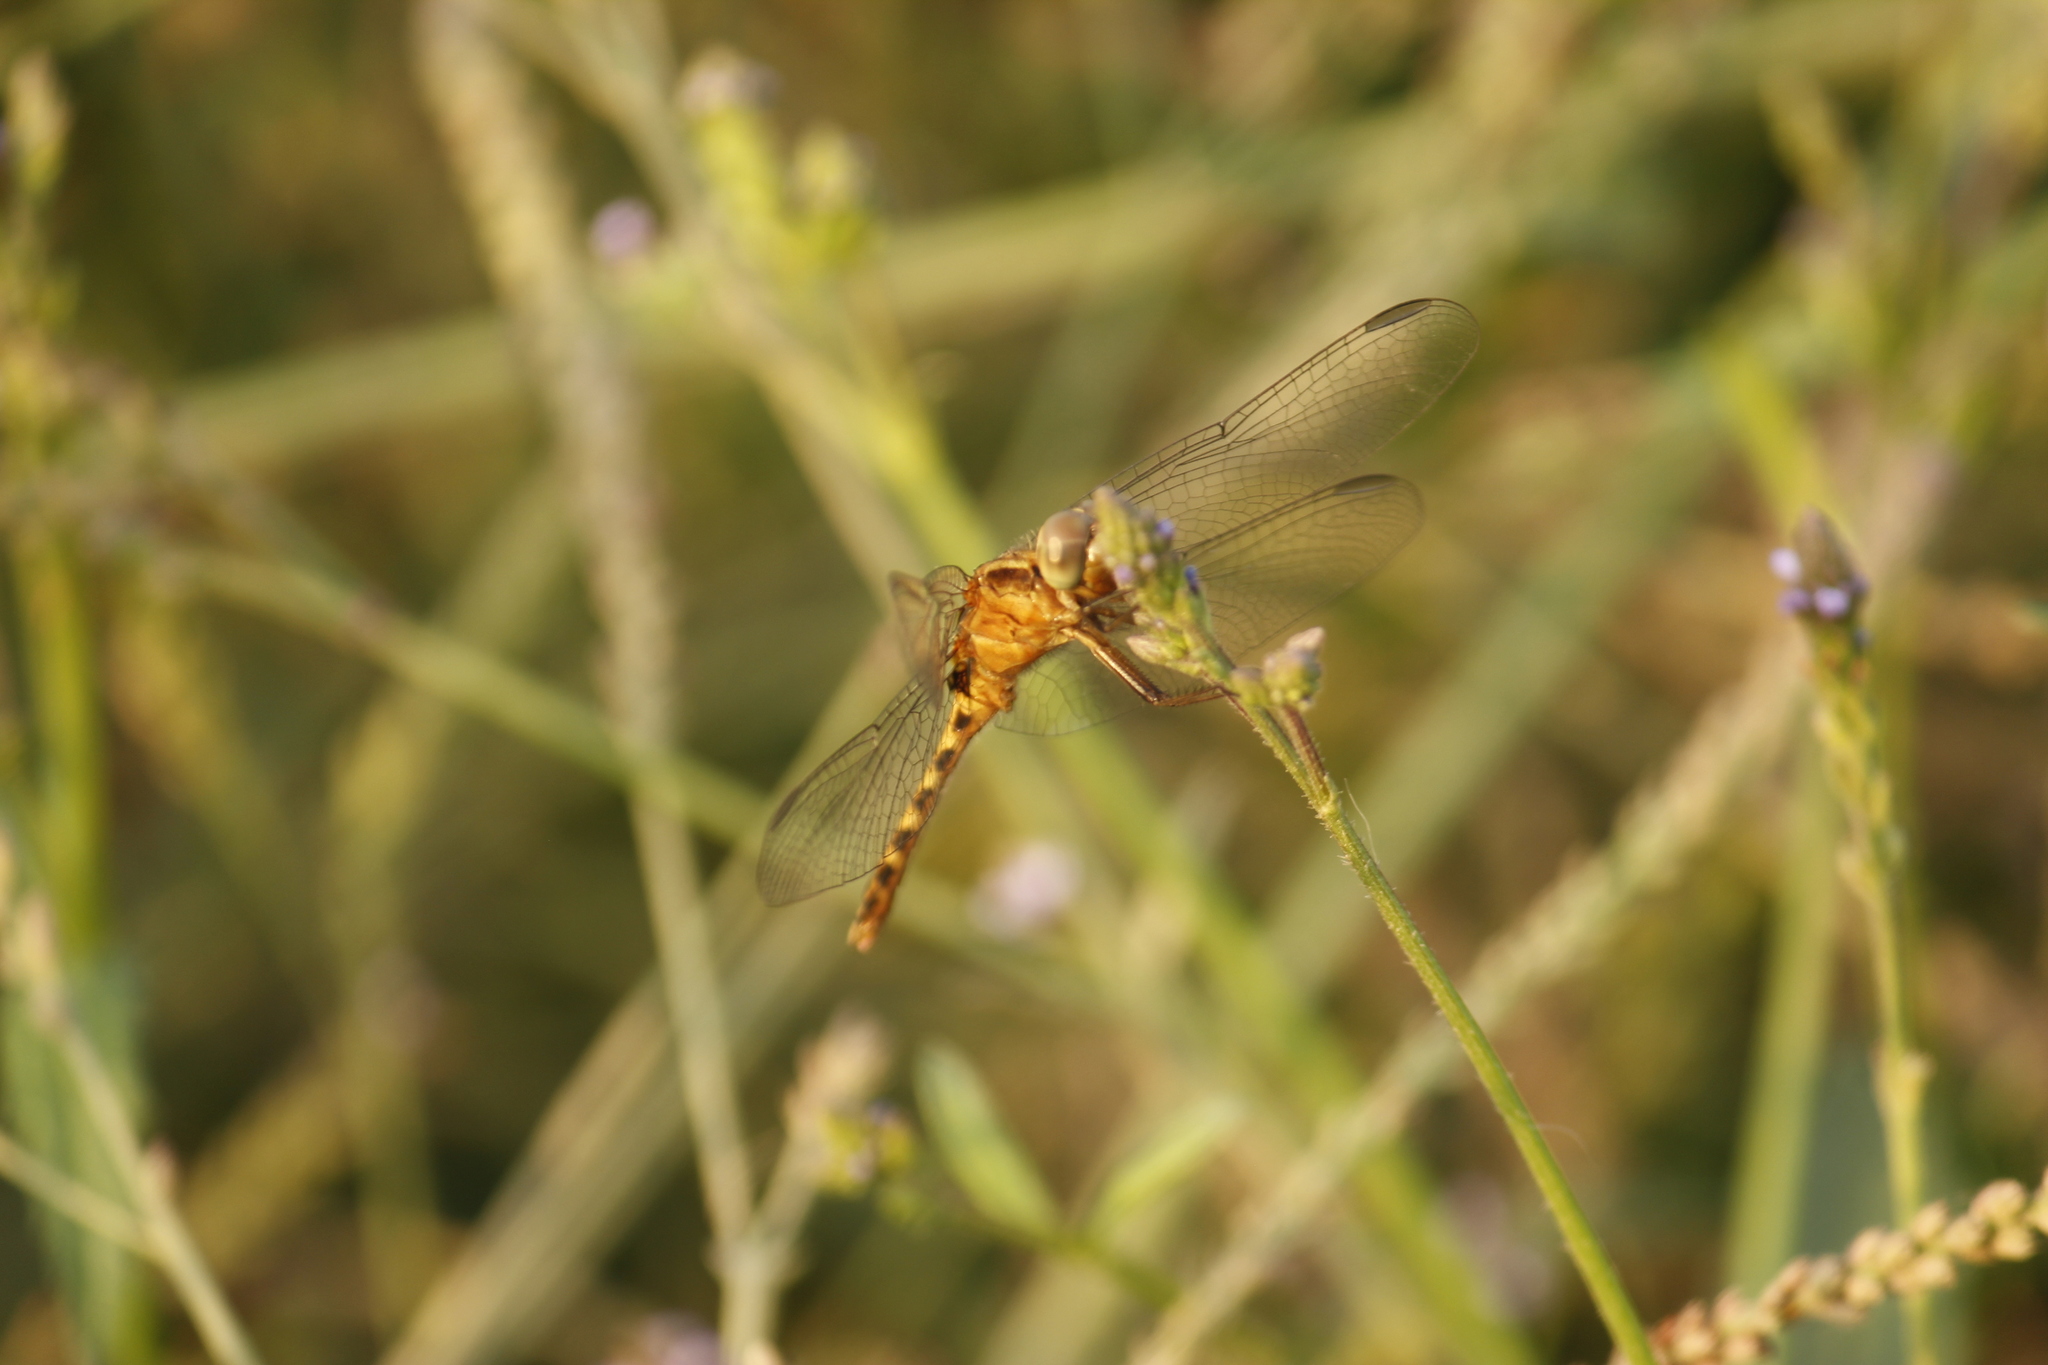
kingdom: Animalia
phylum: Arthropoda
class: Insecta
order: Odonata
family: Libellulidae
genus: Erythrodiplax
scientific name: Erythrodiplax cleopatra
